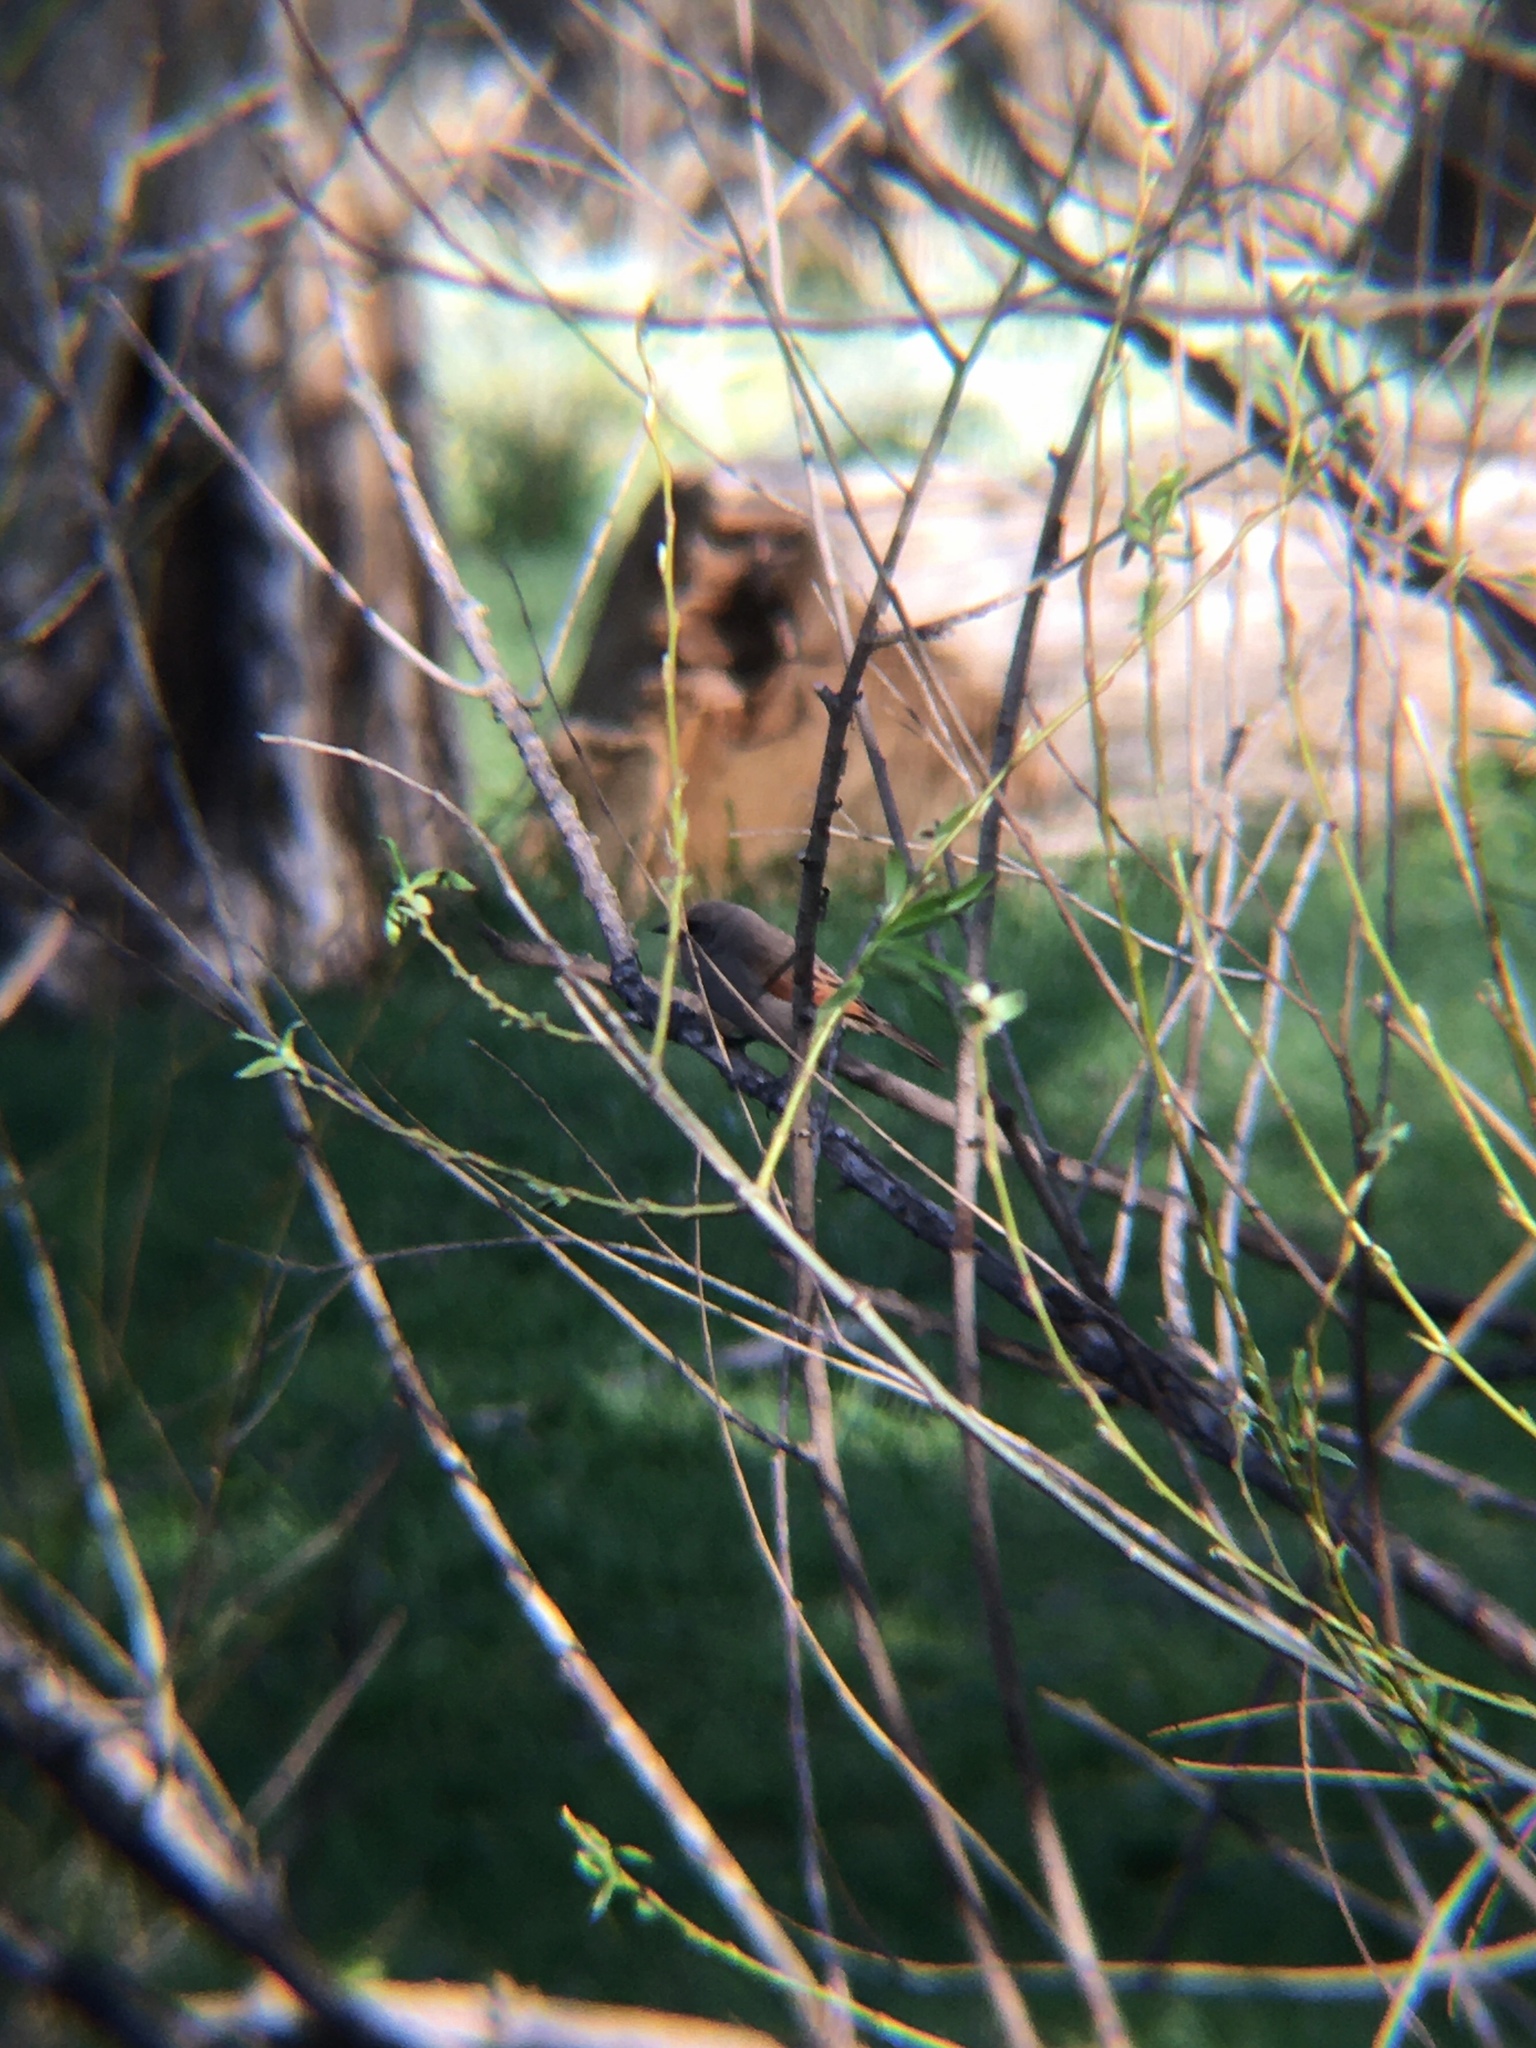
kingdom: Animalia
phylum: Chordata
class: Aves
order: Passeriformes
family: Icteridae
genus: Agelaioides
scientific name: Agelaioides badius
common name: Baywing
